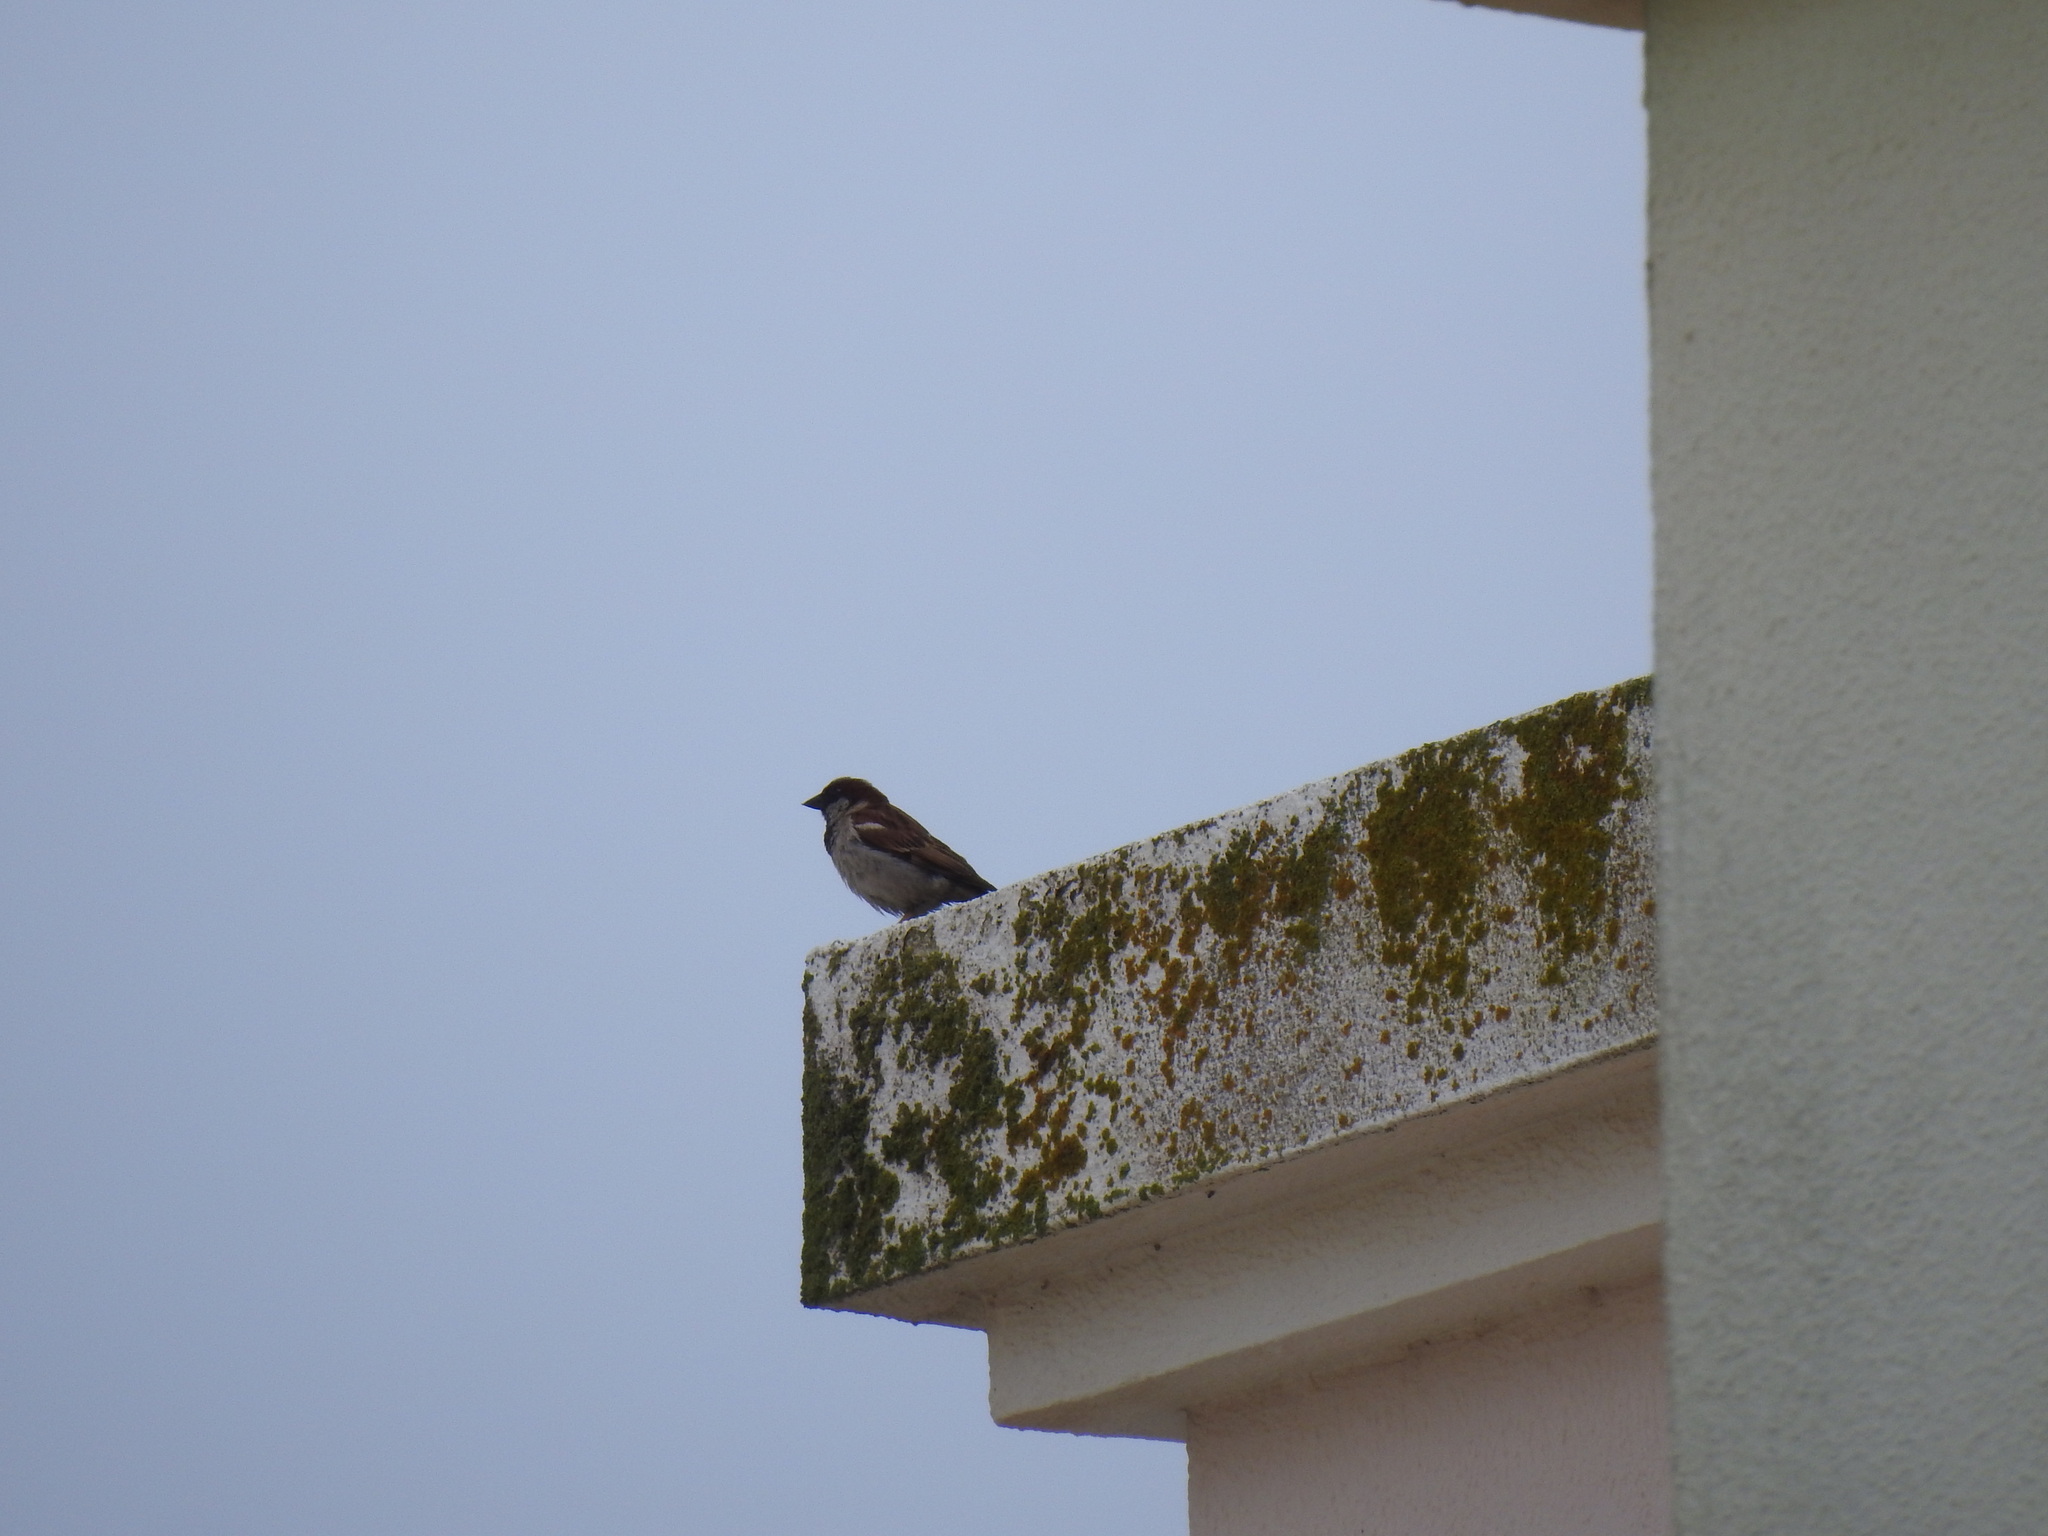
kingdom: Animalia
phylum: Chordata
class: Aves
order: Passeriformes
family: Passeridae
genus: Passer
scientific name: Passer domesticus
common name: House sparrow
